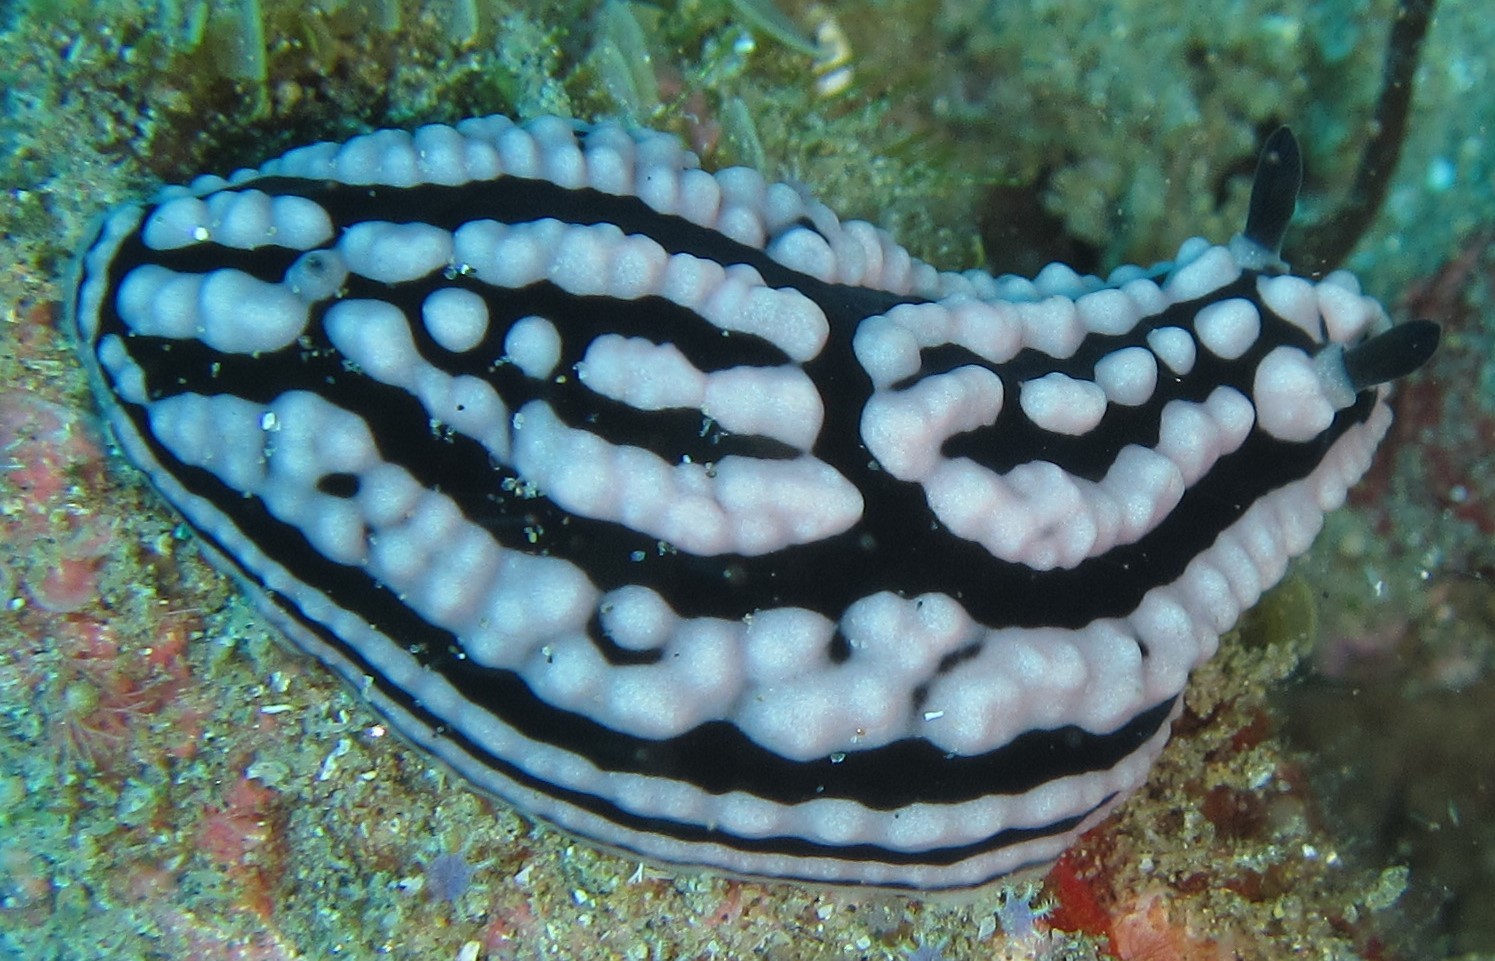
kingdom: Animalia
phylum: Mollusca
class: Gastropoda
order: Nudibranchia
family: Phyllidiidae
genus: Phyllidiella
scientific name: Phyllidiella meandrina
